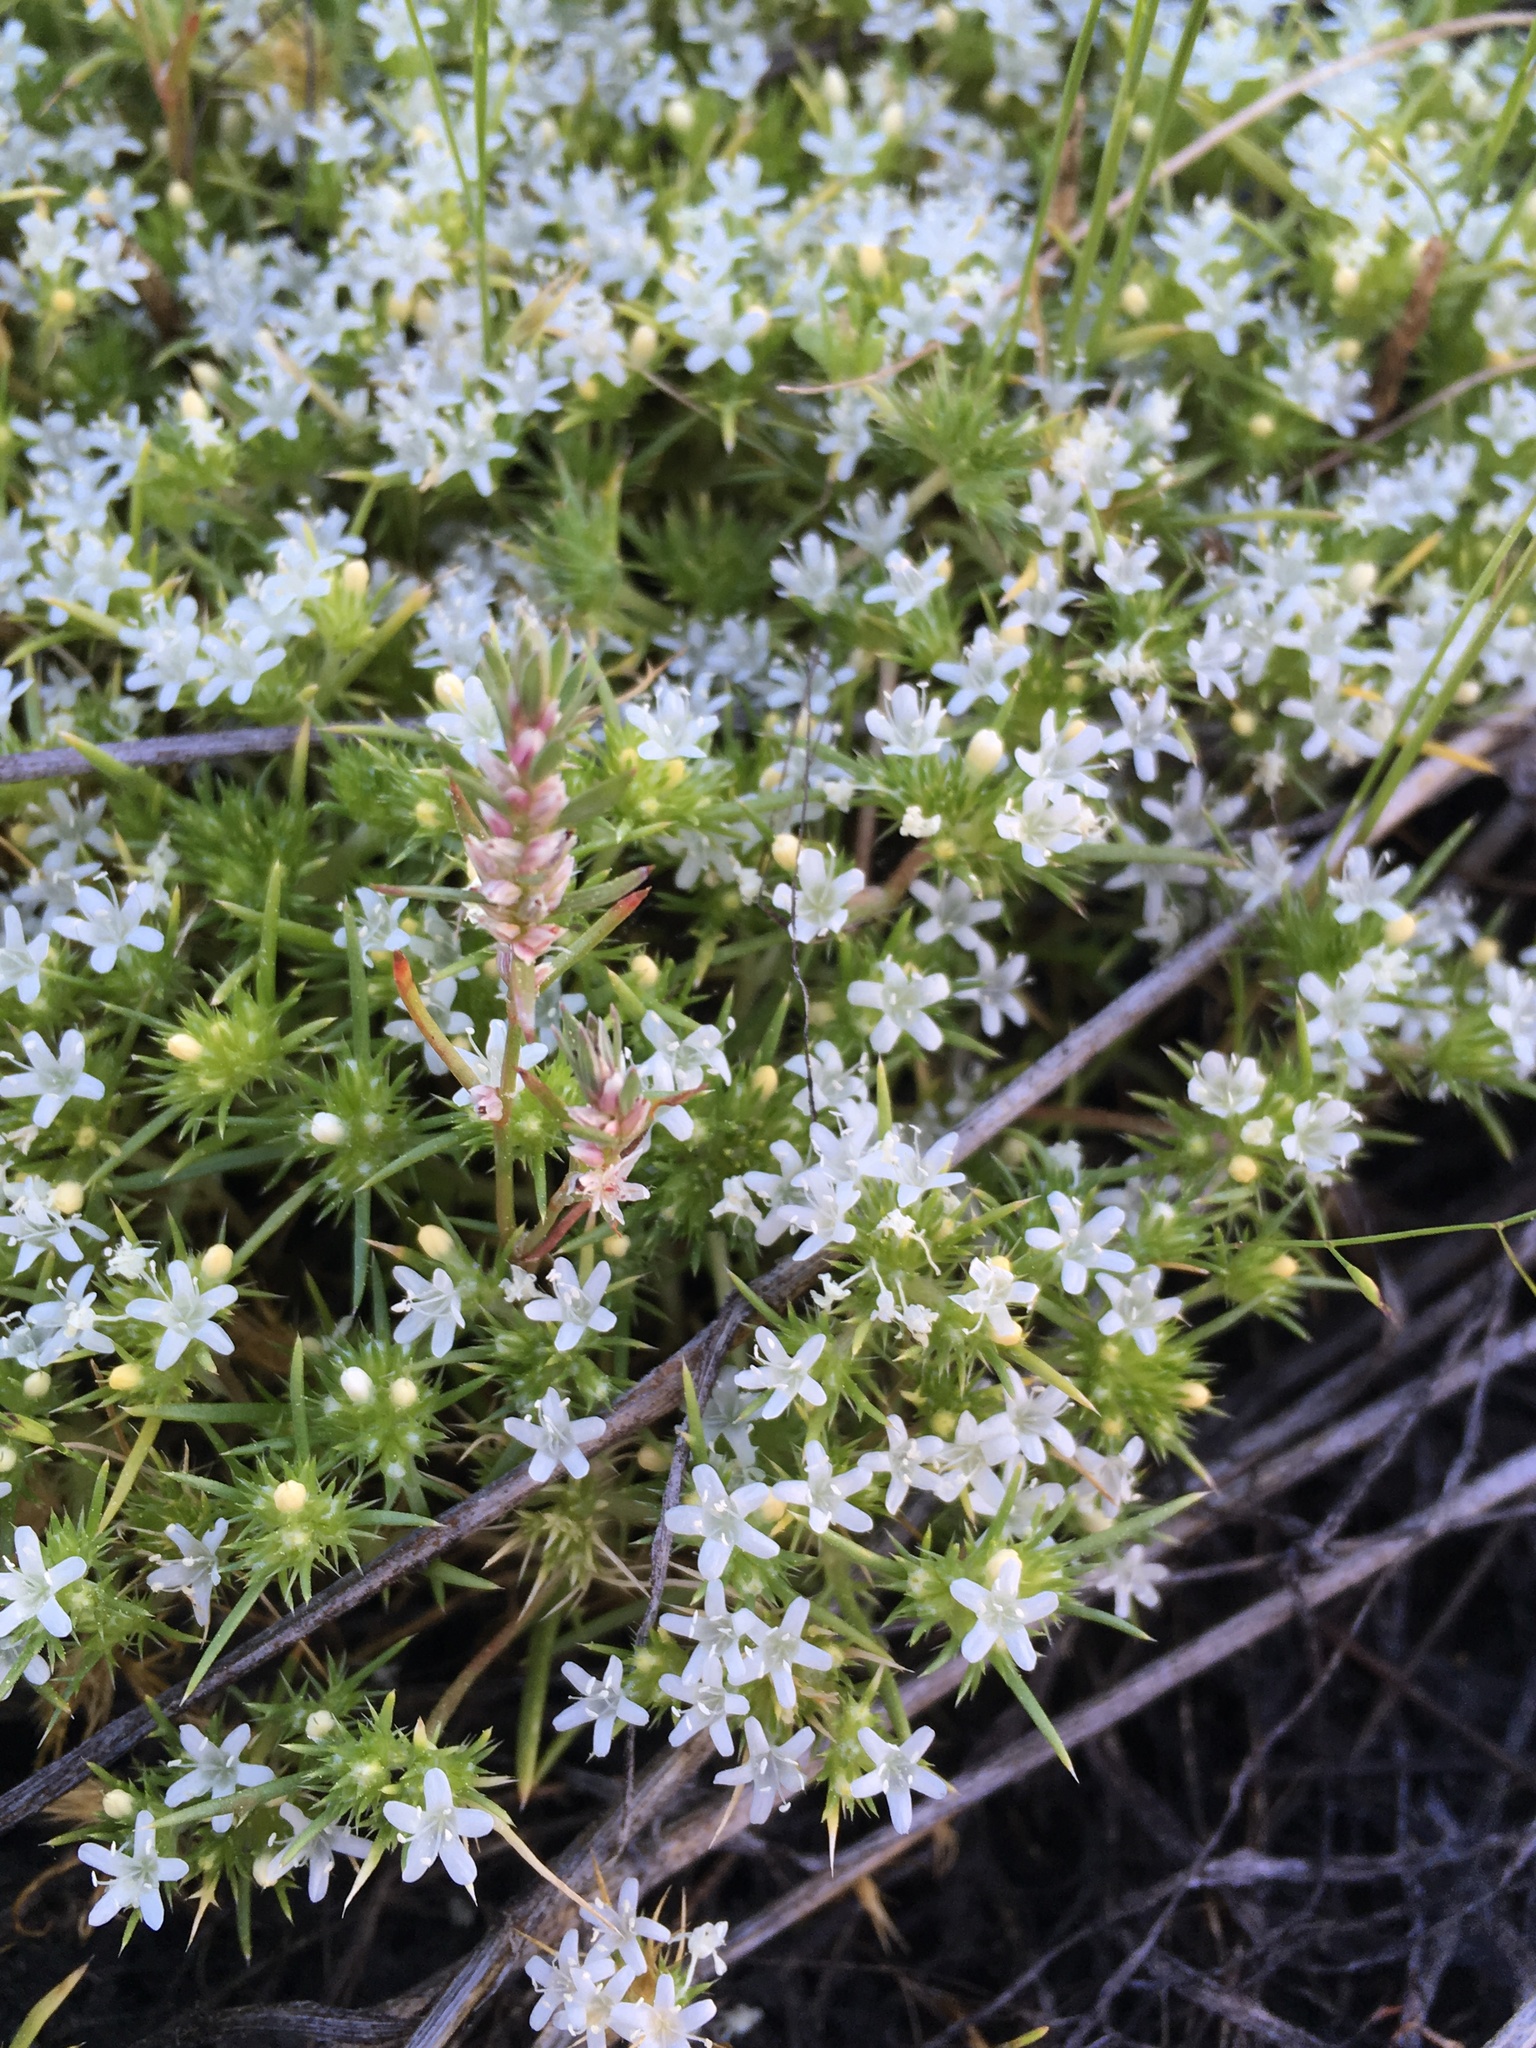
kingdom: Plantae
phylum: Tracheophyta
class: Magnoliopsida
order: Ericales
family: Polemoniaceae
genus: Navarretia
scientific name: Navarretia leucocephala
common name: White-flowered navarretia
